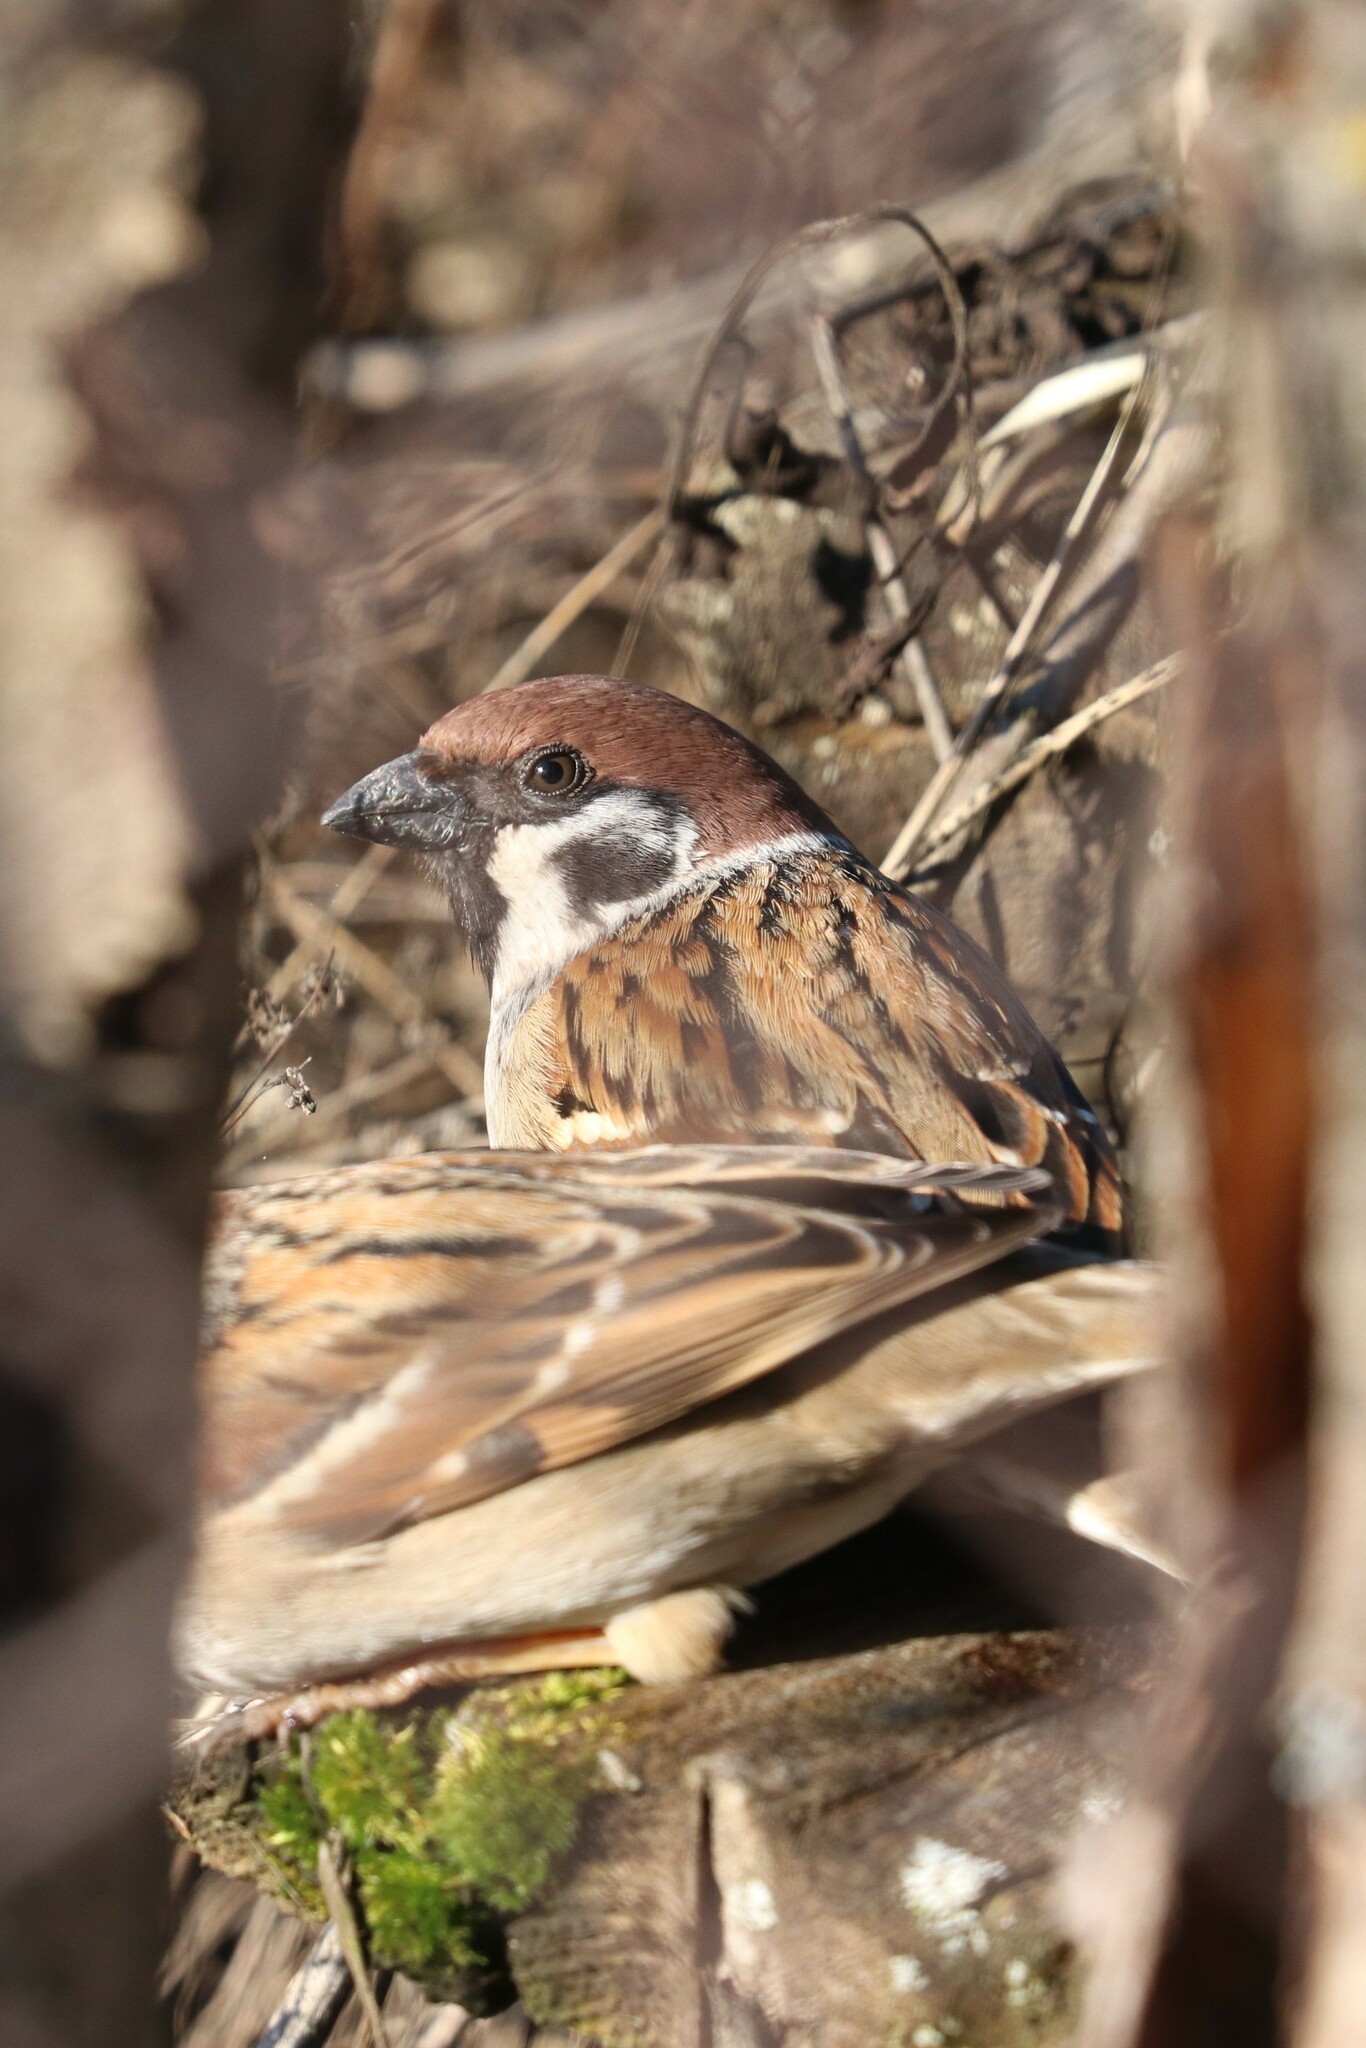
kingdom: Animalia
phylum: Chordata
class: Aves
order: Passeriformes
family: Passeridae
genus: Passer
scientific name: Passer montanus
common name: Eurasian tree sparrow
